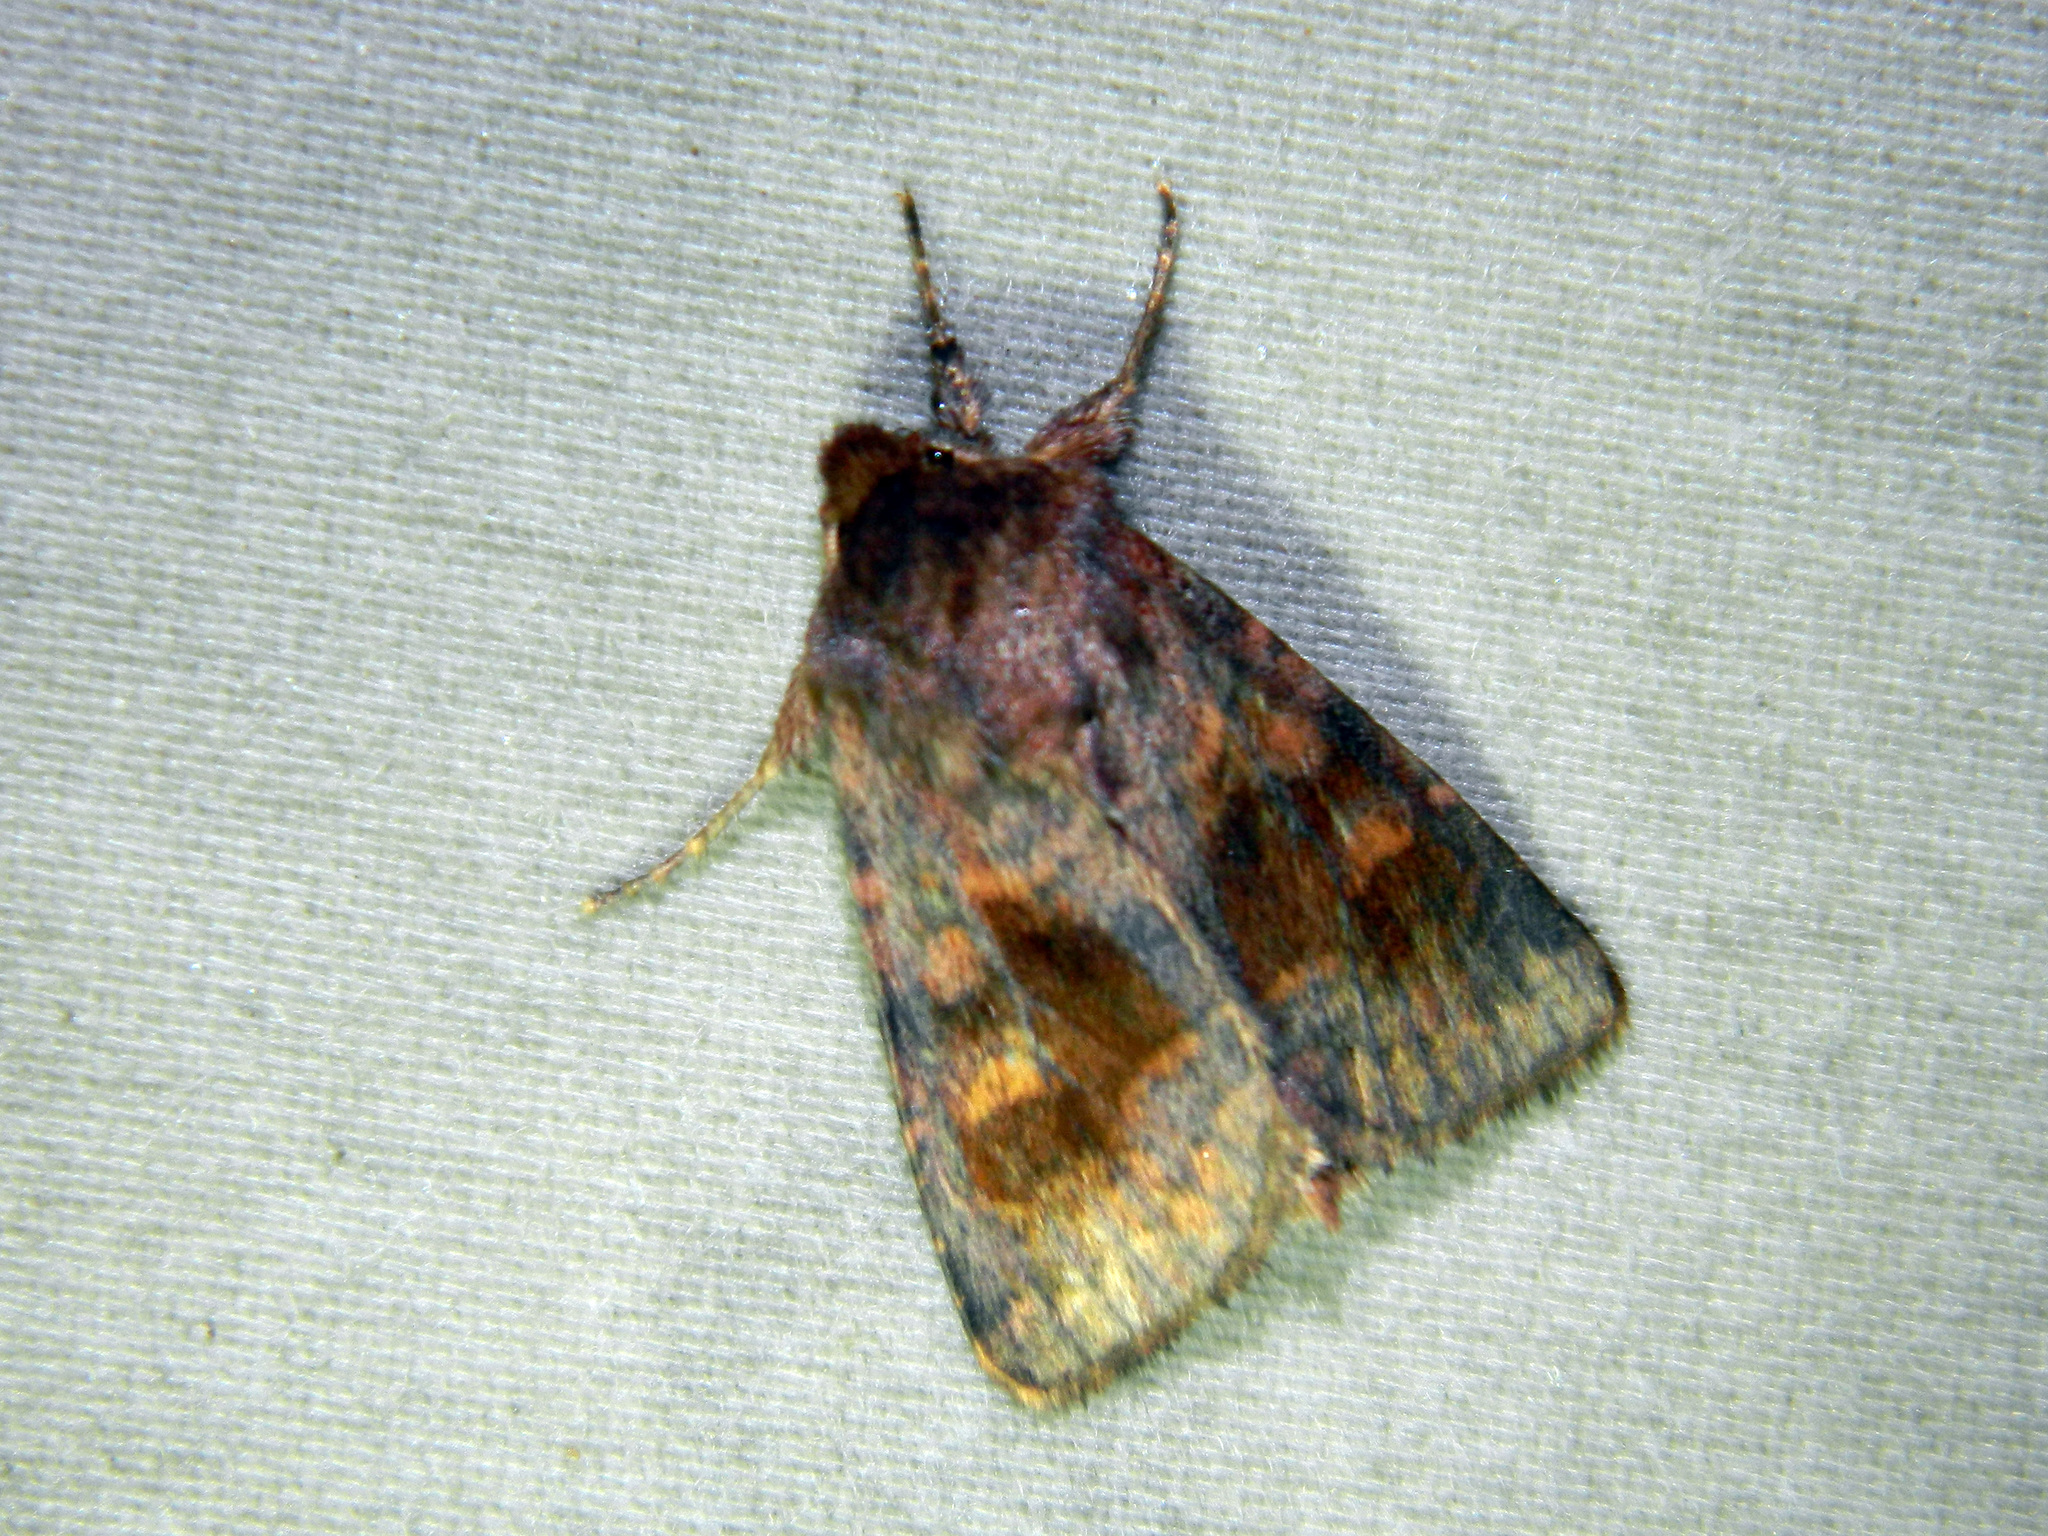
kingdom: Animalia
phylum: Arthropoda
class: Insecta
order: Lepidoptera
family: Noctuidae
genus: Nephelodes
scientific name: Nephelodes minians
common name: Bronzed cutworm
